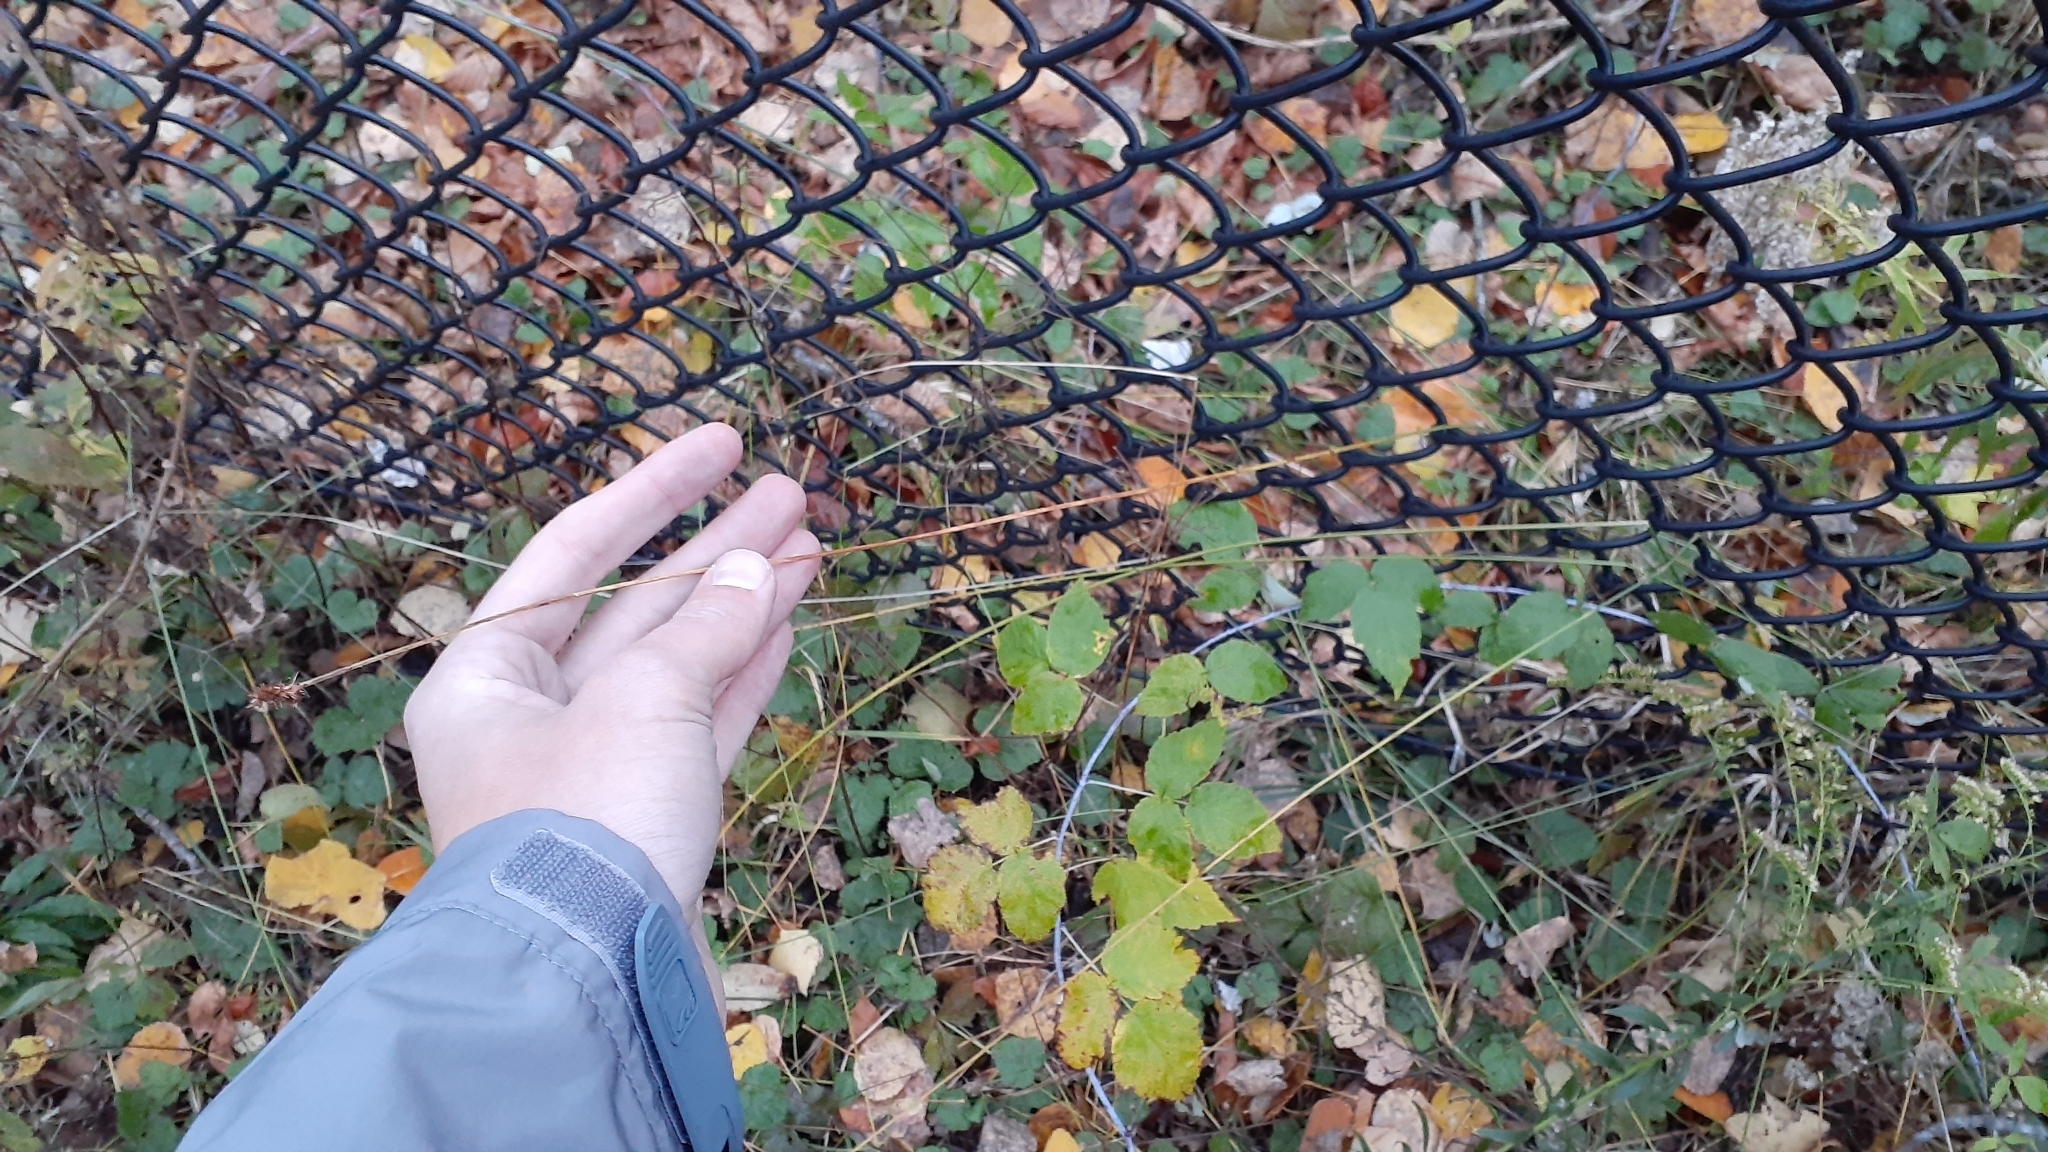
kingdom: Plantae
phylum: Tracheophyta
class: Liliopsida
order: Poales
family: Cyperaceae
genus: Carex
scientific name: Carex cephalophora
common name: Oval-headed sedge
